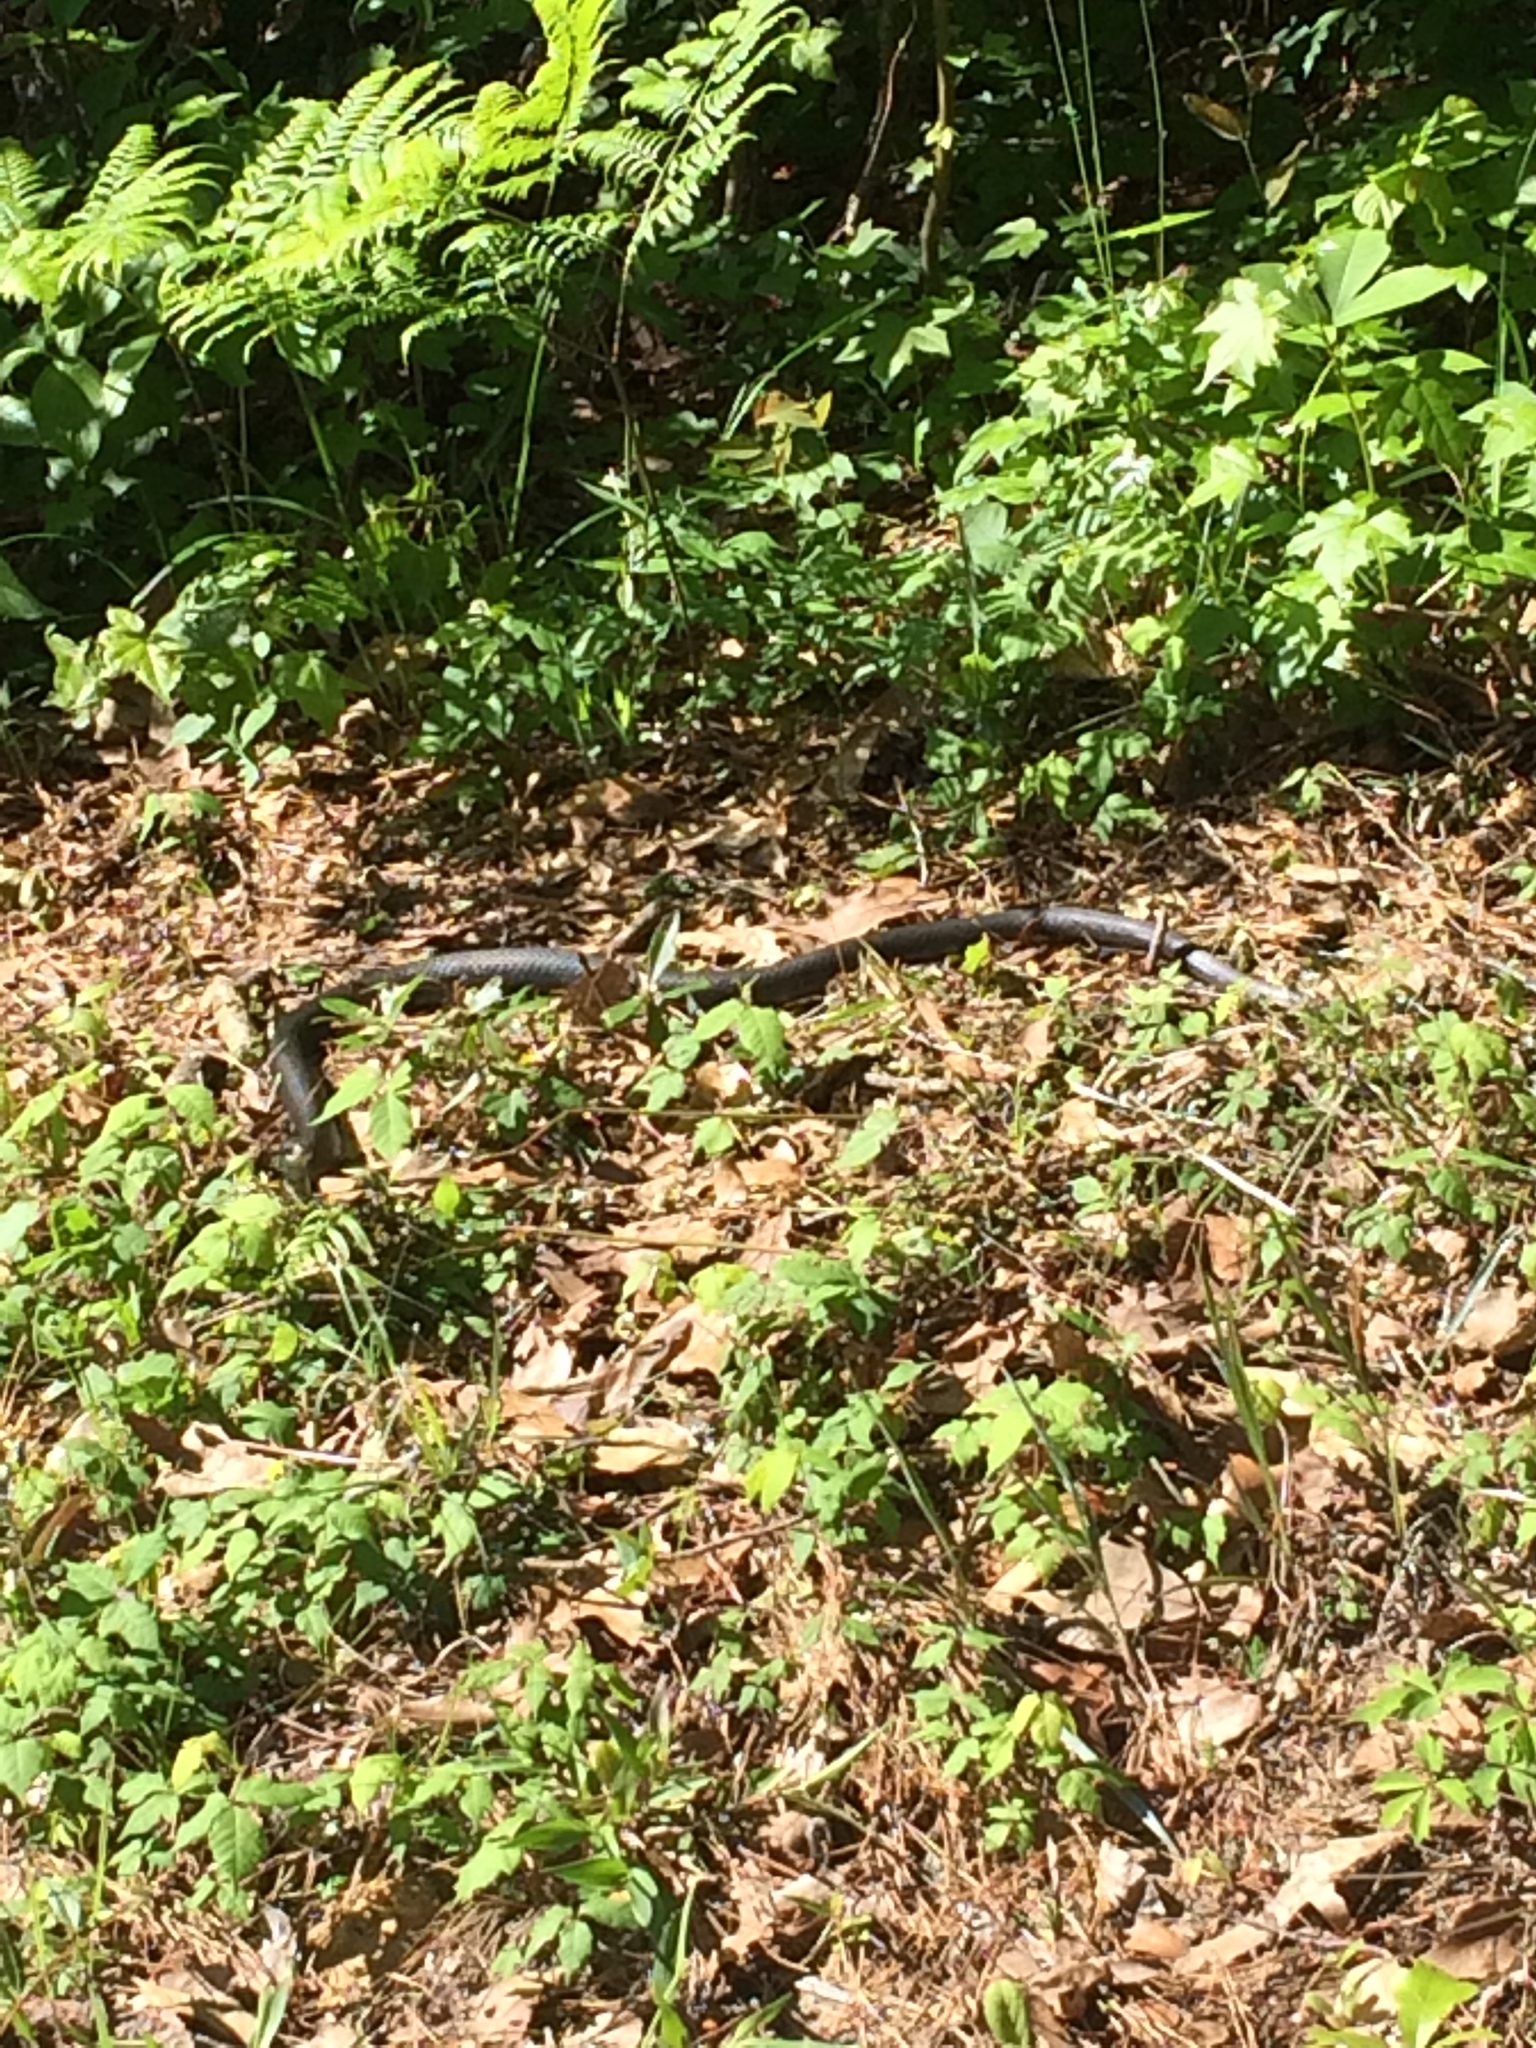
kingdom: Animalia
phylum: Chordata
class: Squamata
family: Colubridae
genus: Coluber
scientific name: Coluber constrictor
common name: Eastern racer
